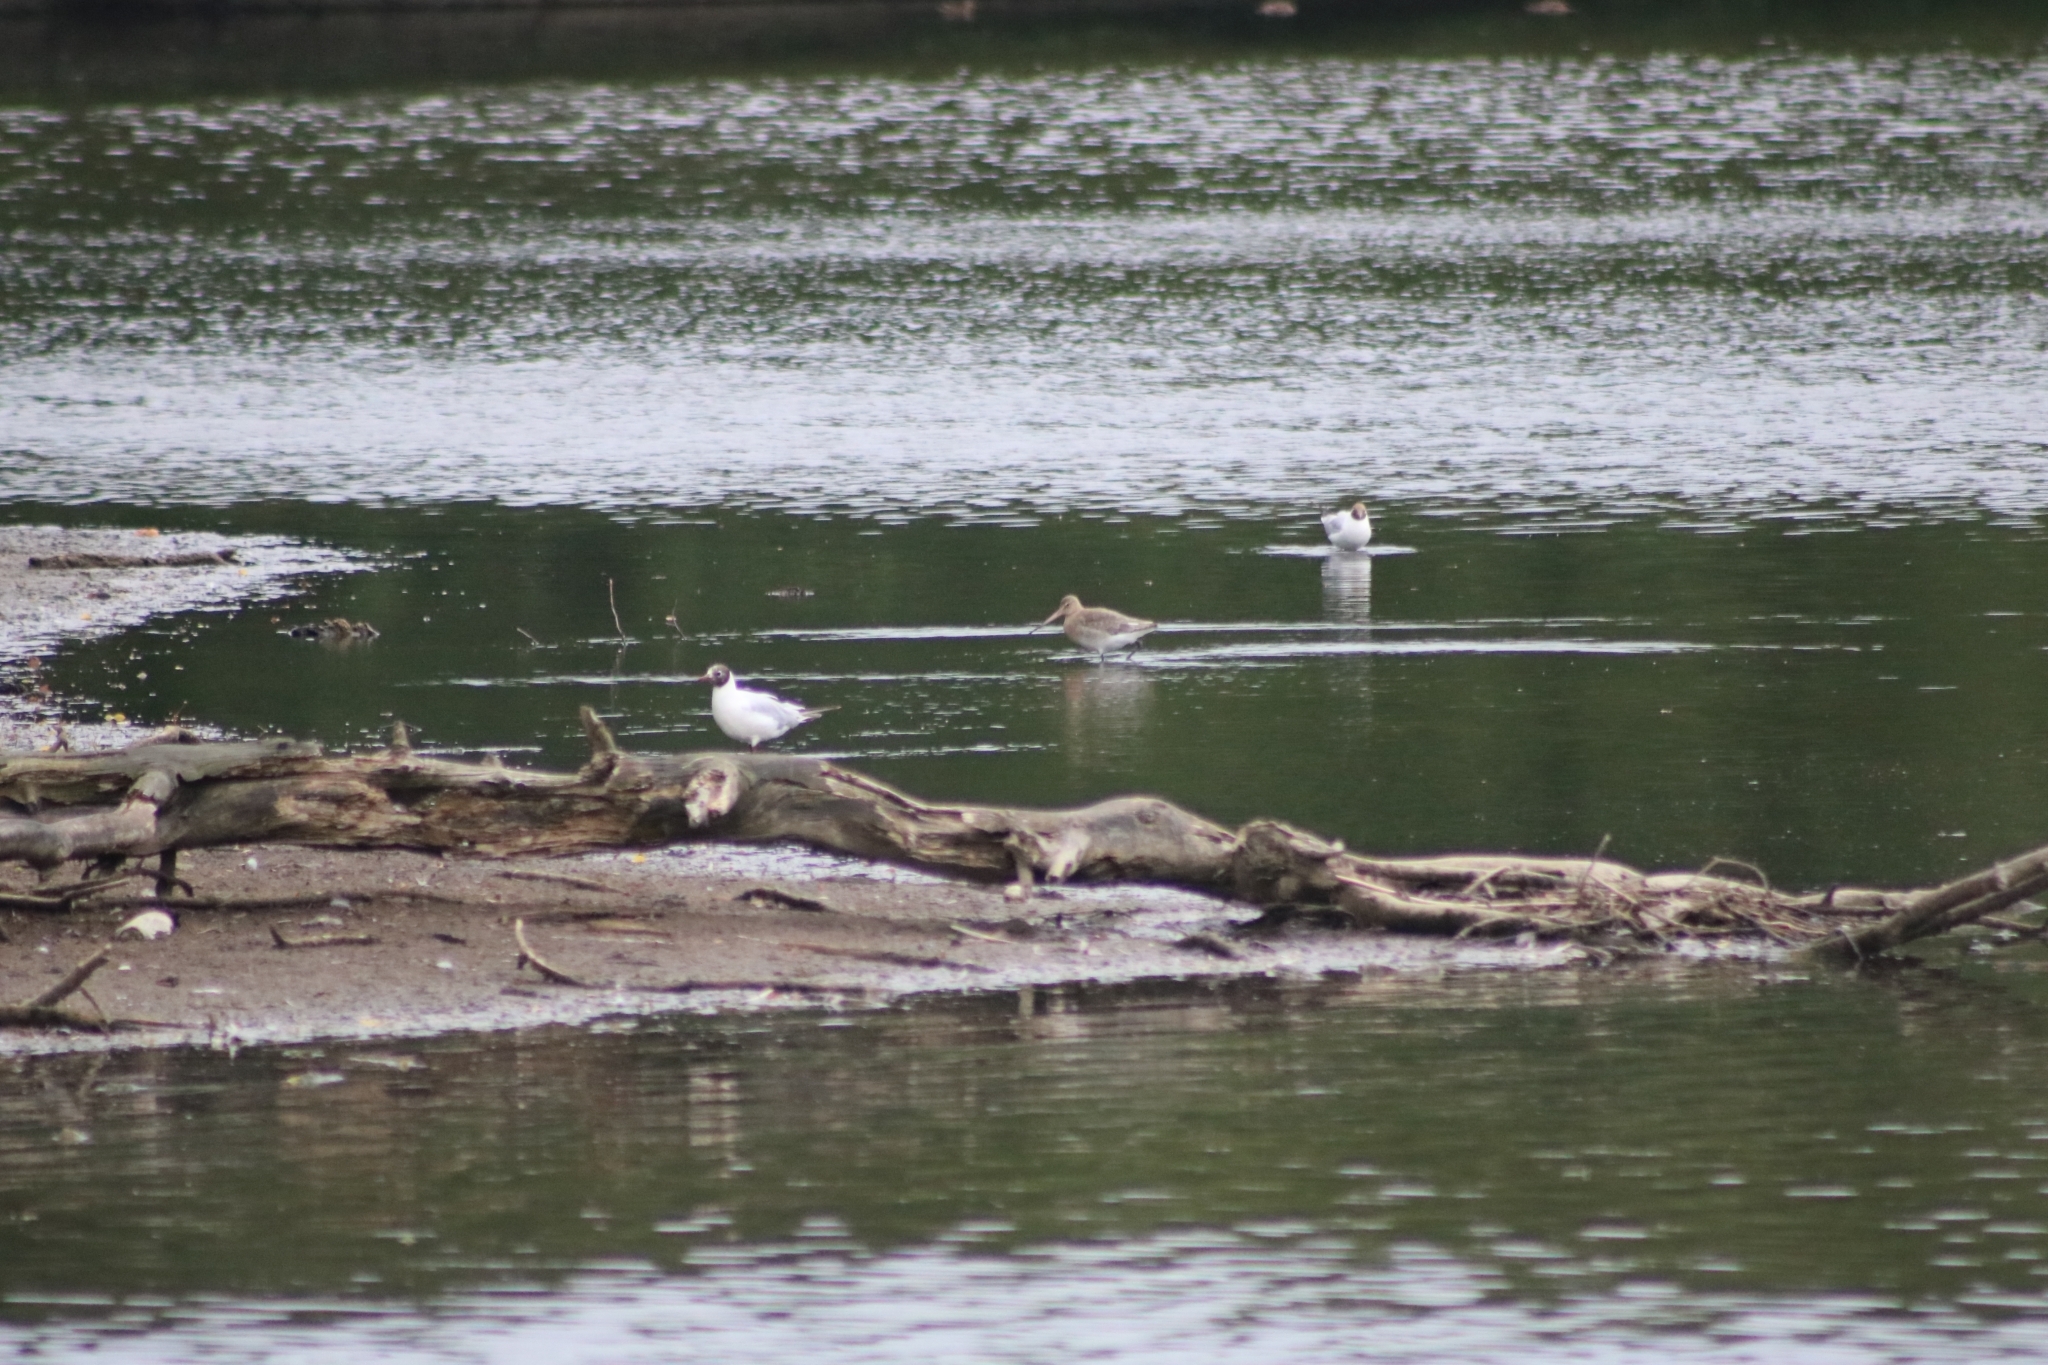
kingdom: Animalia
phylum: Chordata
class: Aves
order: Charadriiformes
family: Scolopacidae
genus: Limosa
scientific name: Limosa limosa
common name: Black-tailed godwit
